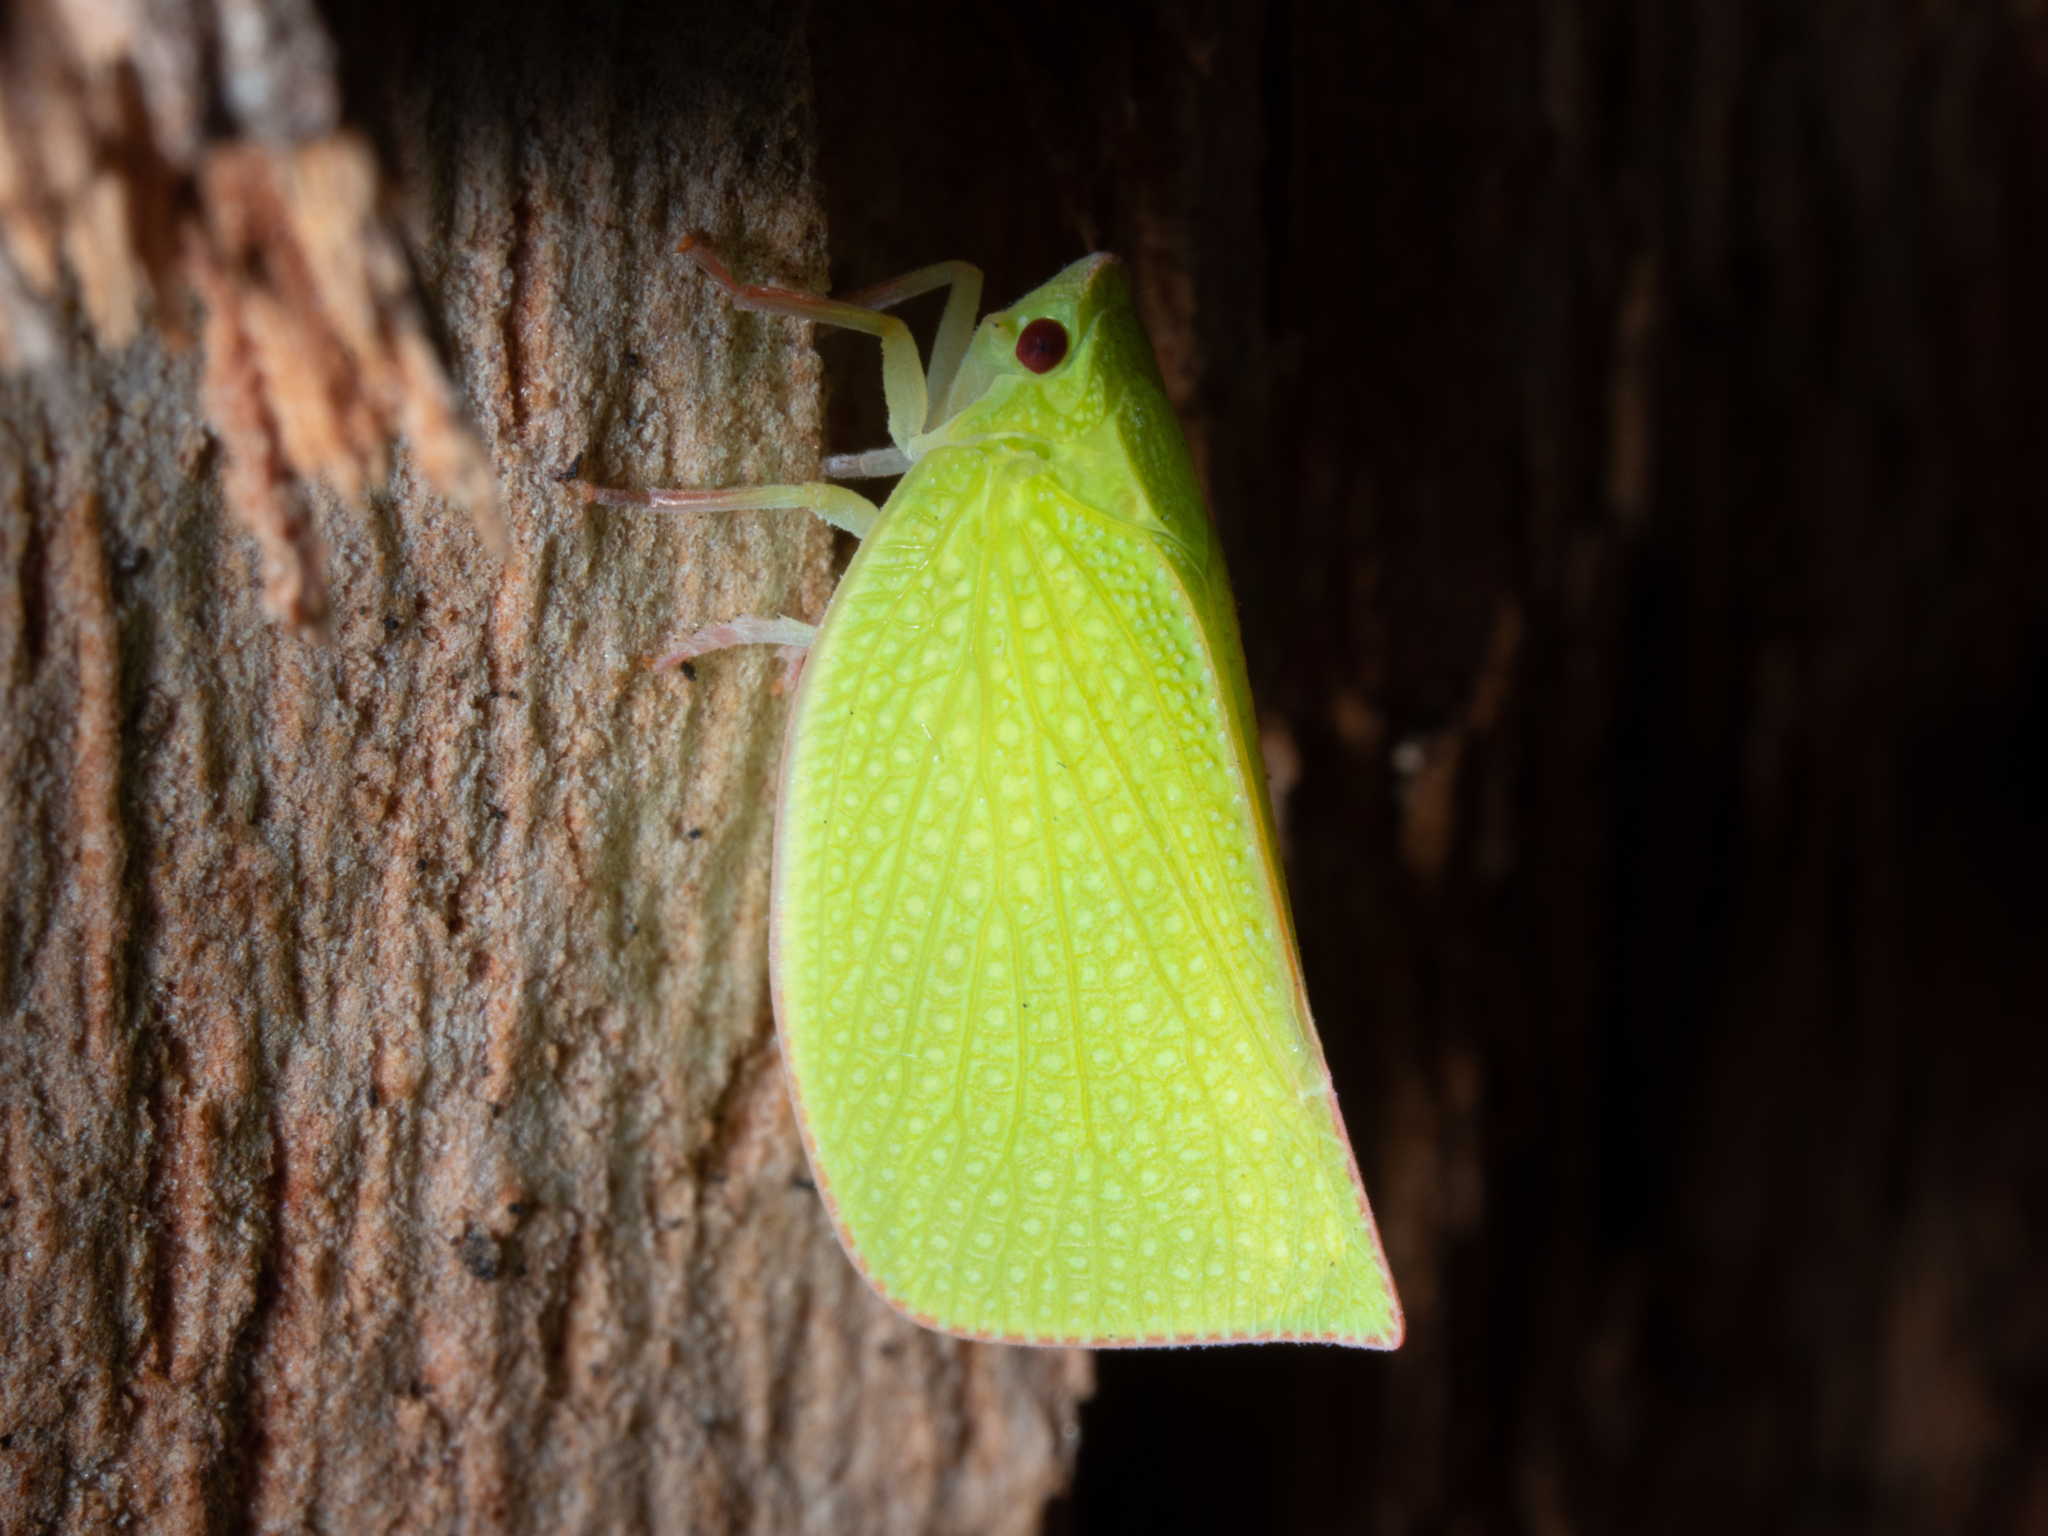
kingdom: Animalia
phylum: Arthropoda
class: Insecta
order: Hemiptera
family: Flatidae
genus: Siphanta
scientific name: Siphanta
